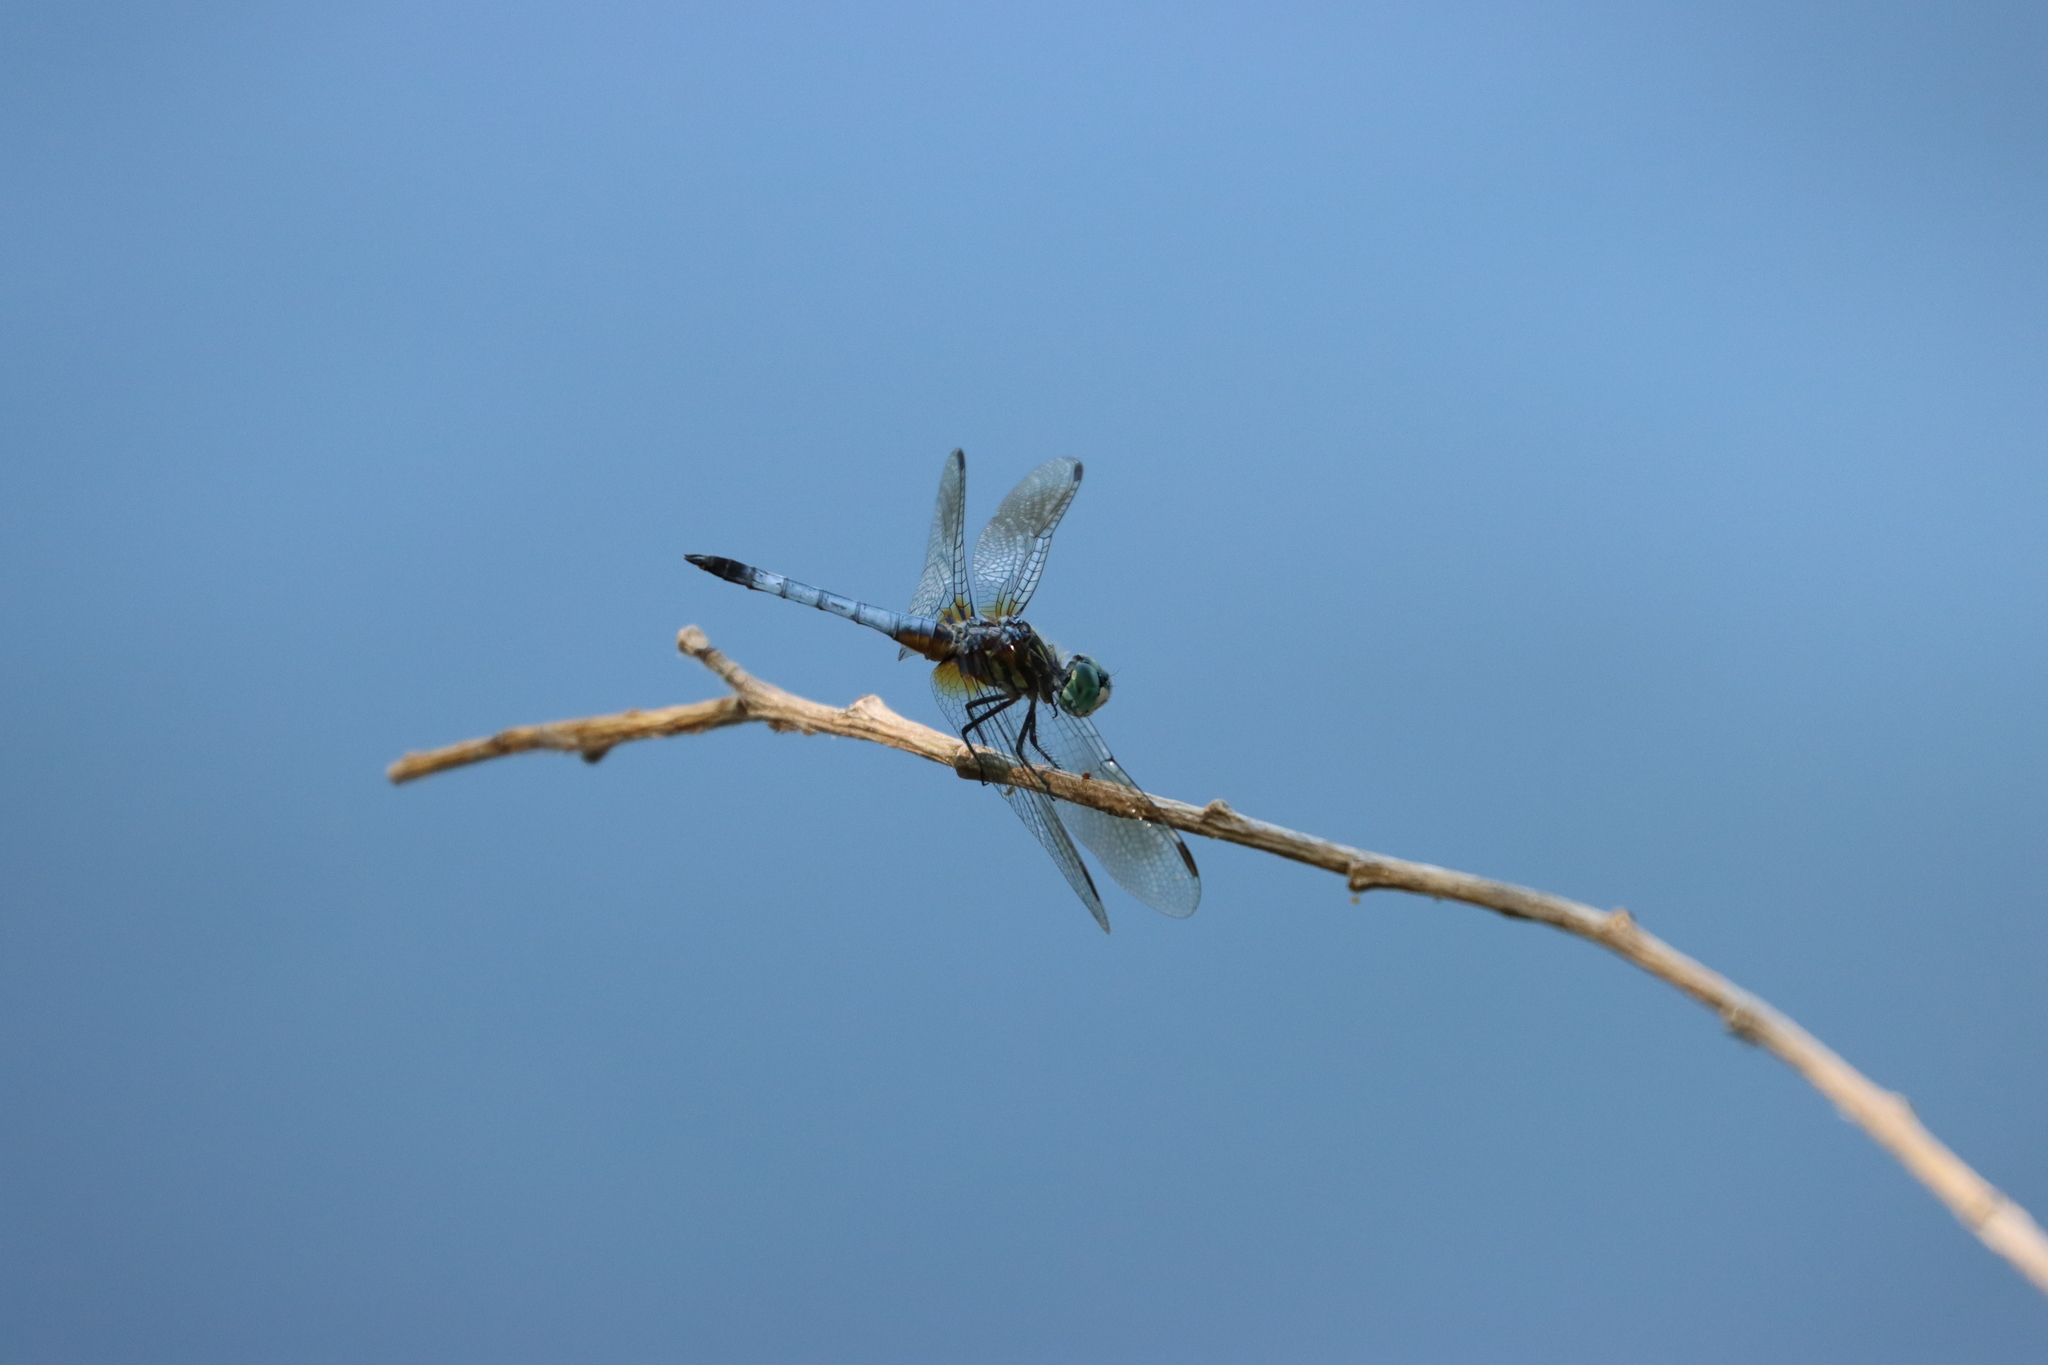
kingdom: Animalia
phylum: Arthropoda
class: Insecta
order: Odonata
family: Libellulidae
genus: Pachydiplax
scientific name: Pachydiplax longipennis
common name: Blue dasher
